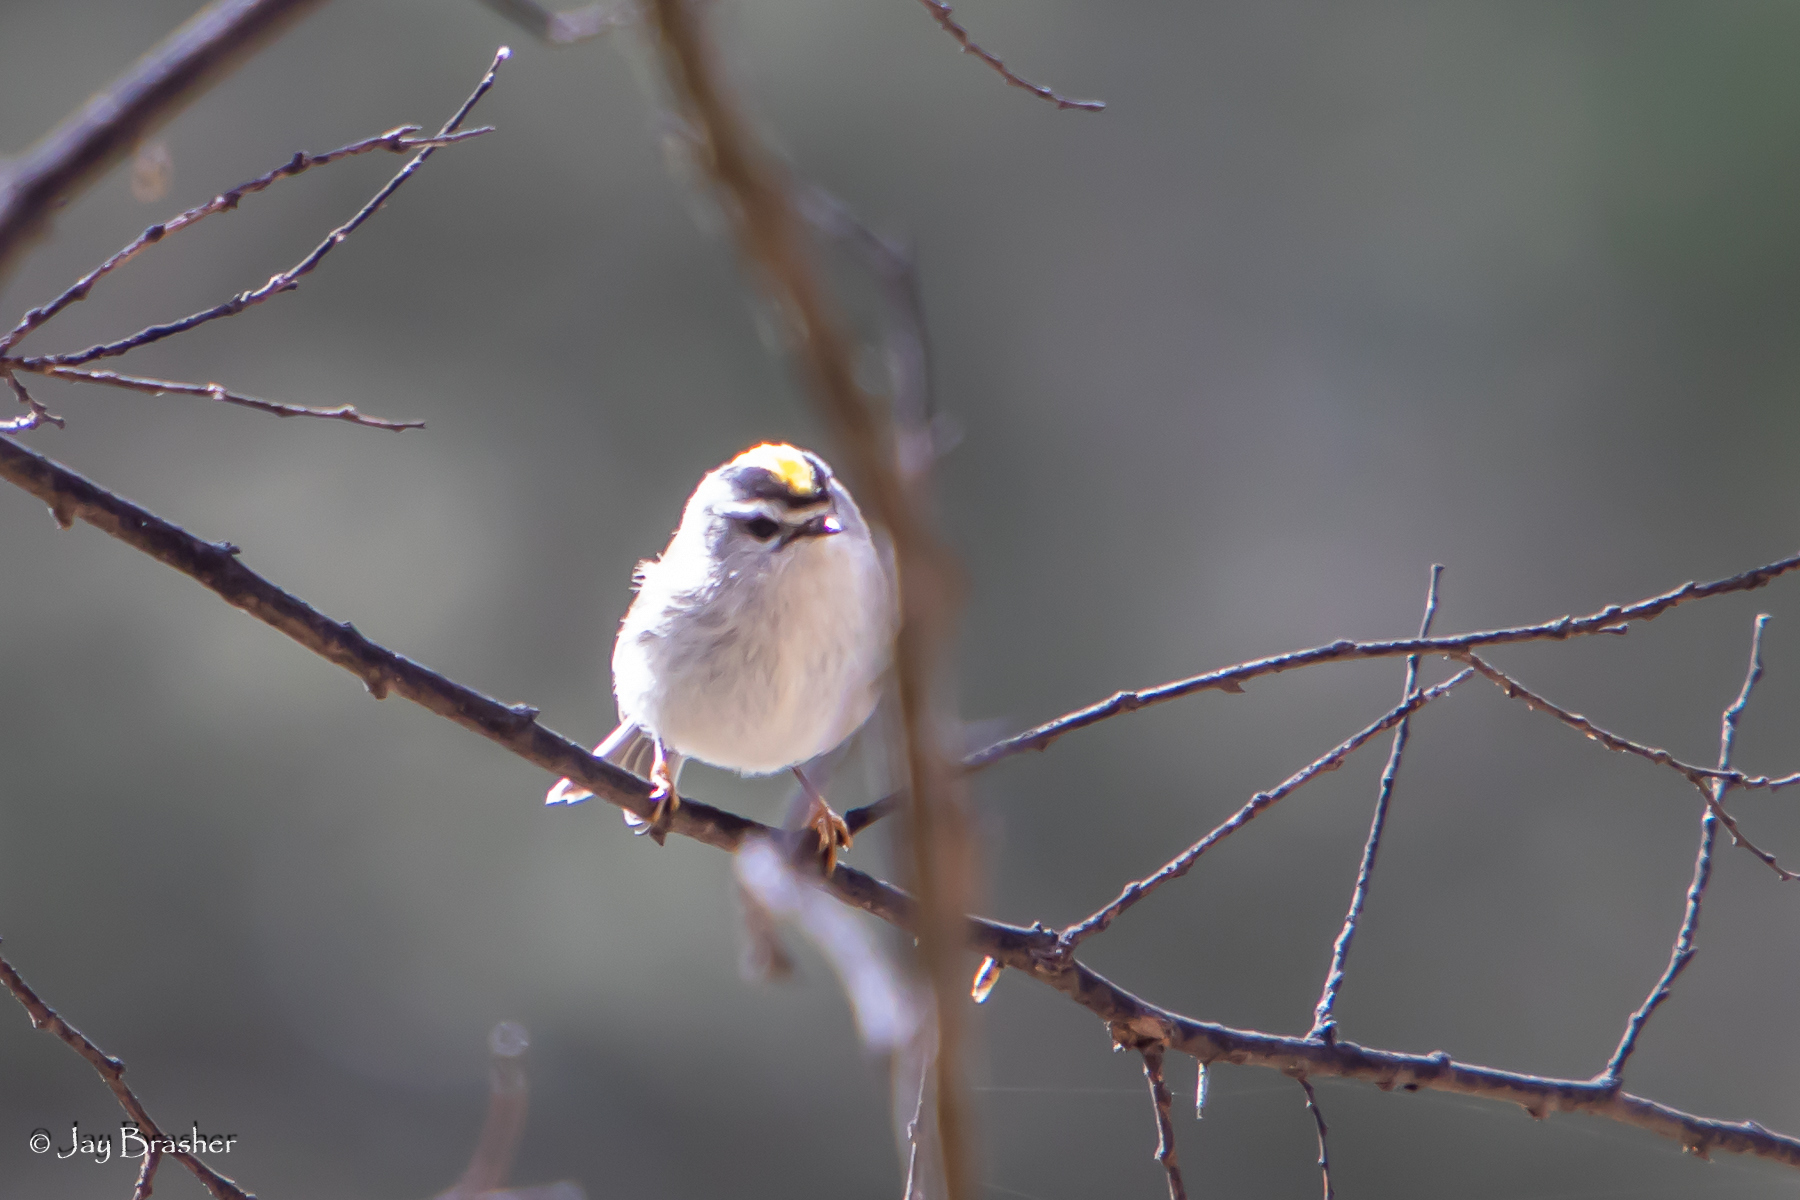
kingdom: Animalia
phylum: Chordata
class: Aves
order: Passeriformes
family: Regulidae
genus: Regulus
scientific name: Regulus satrapa
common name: Golden-crowned kinglet
